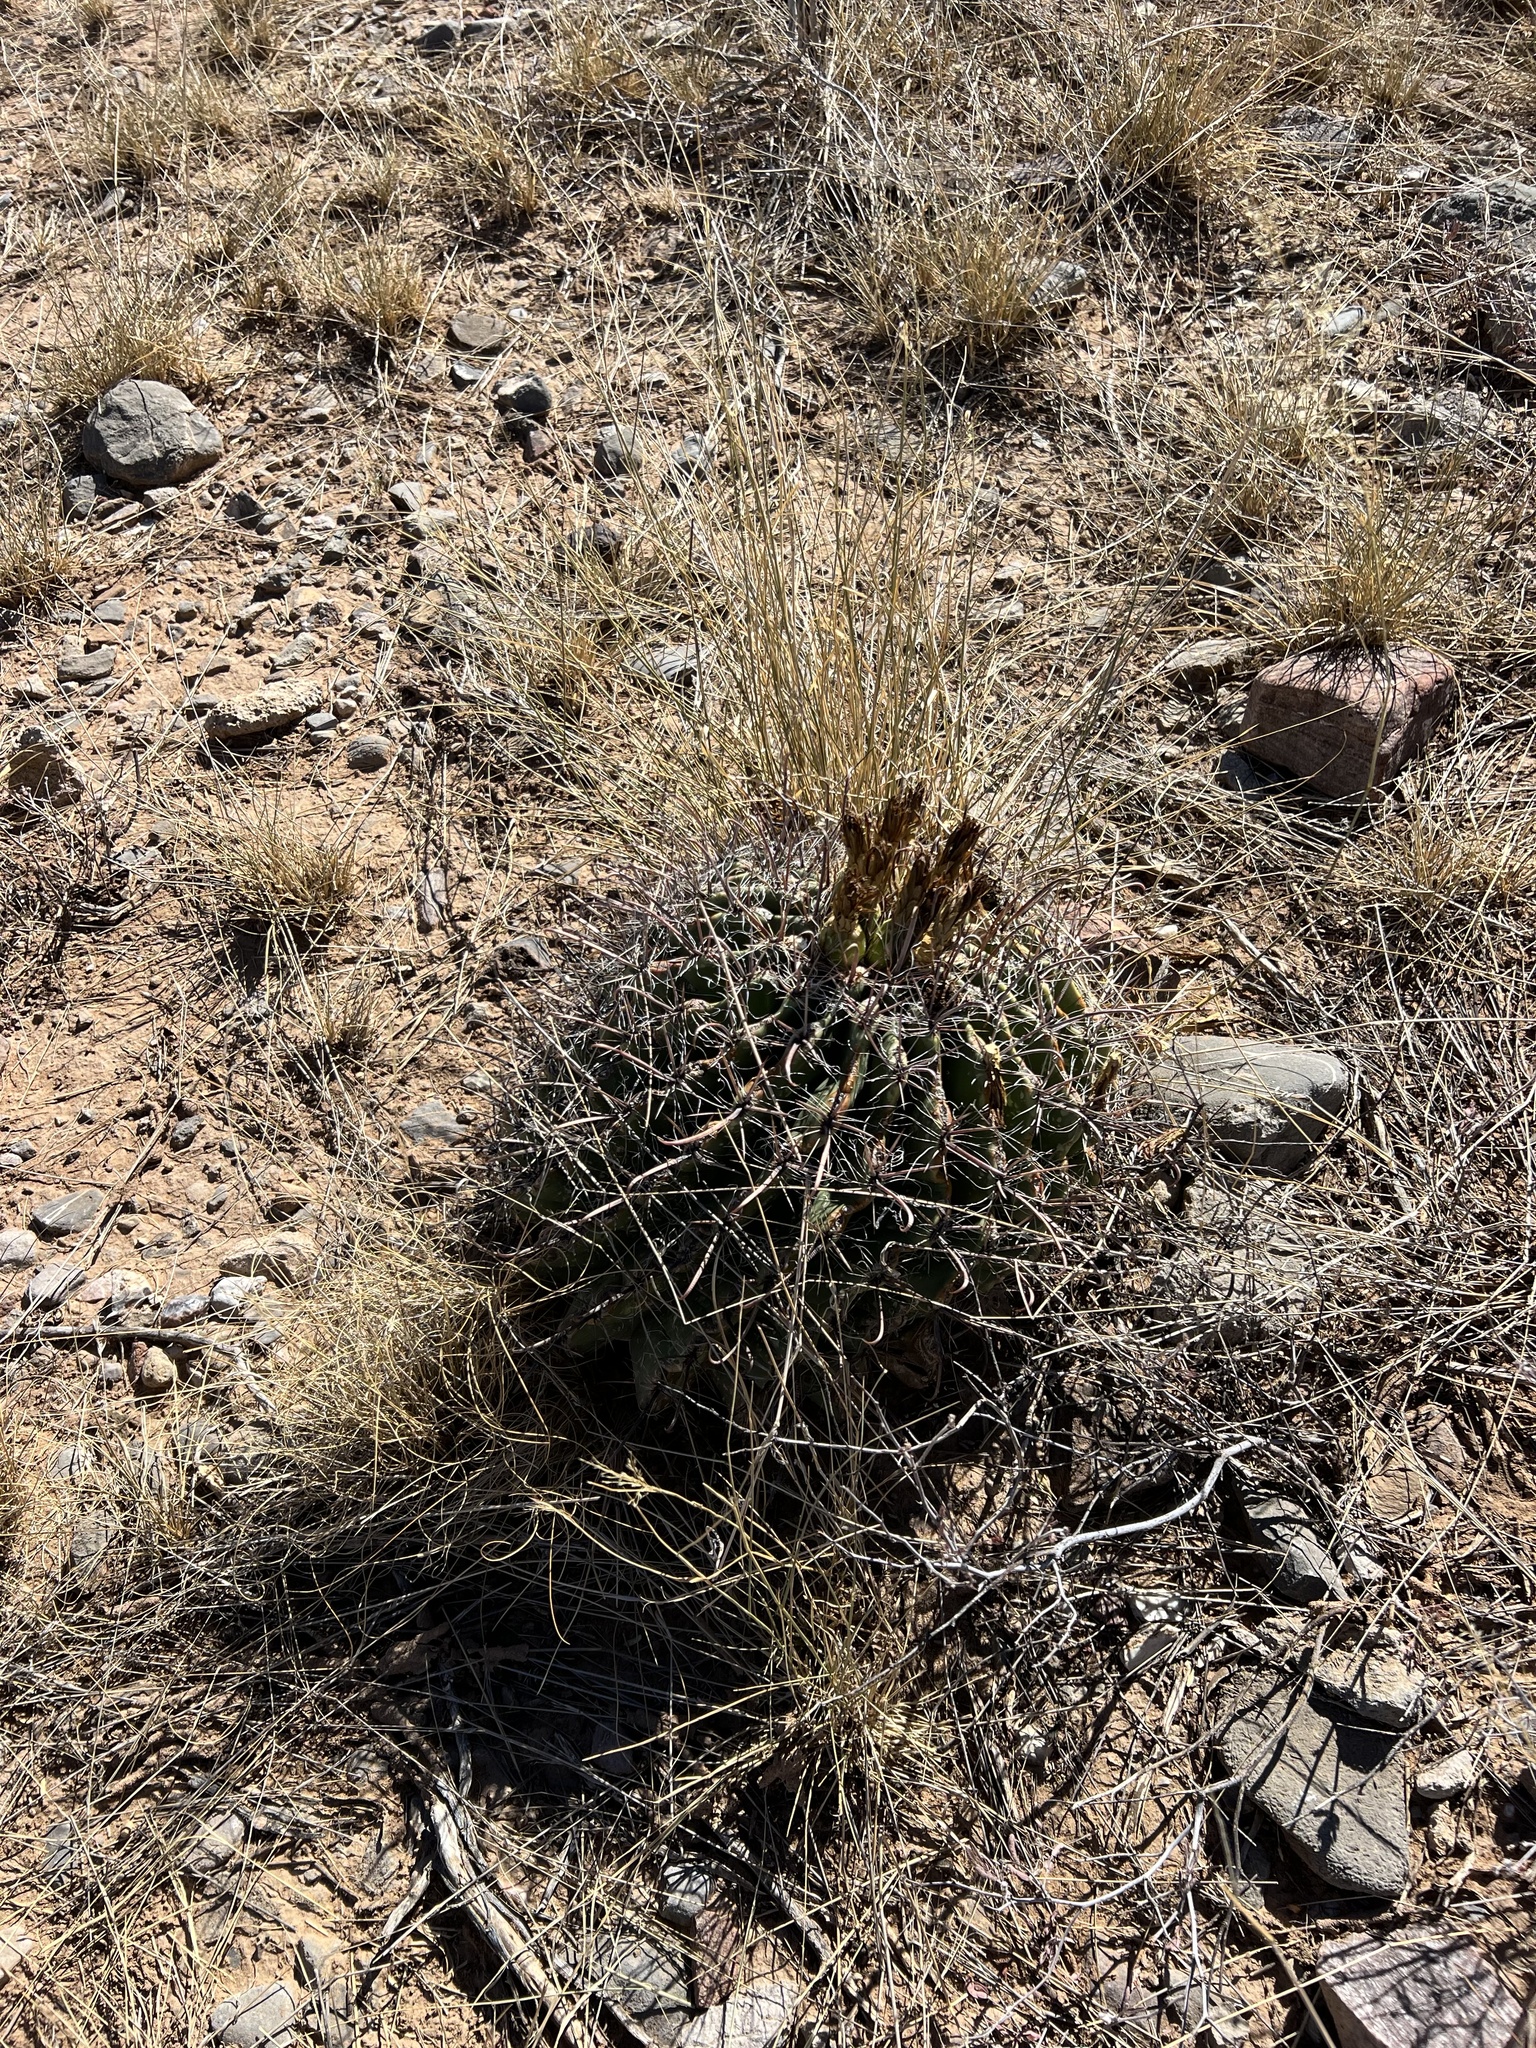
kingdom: Plantae
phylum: Tracheophyta
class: Magnoliopsida
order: Caryophyllales
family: Cactaceae
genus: Ferocactus
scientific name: Ferocactus wislizeni
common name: Candy barrel cactus
